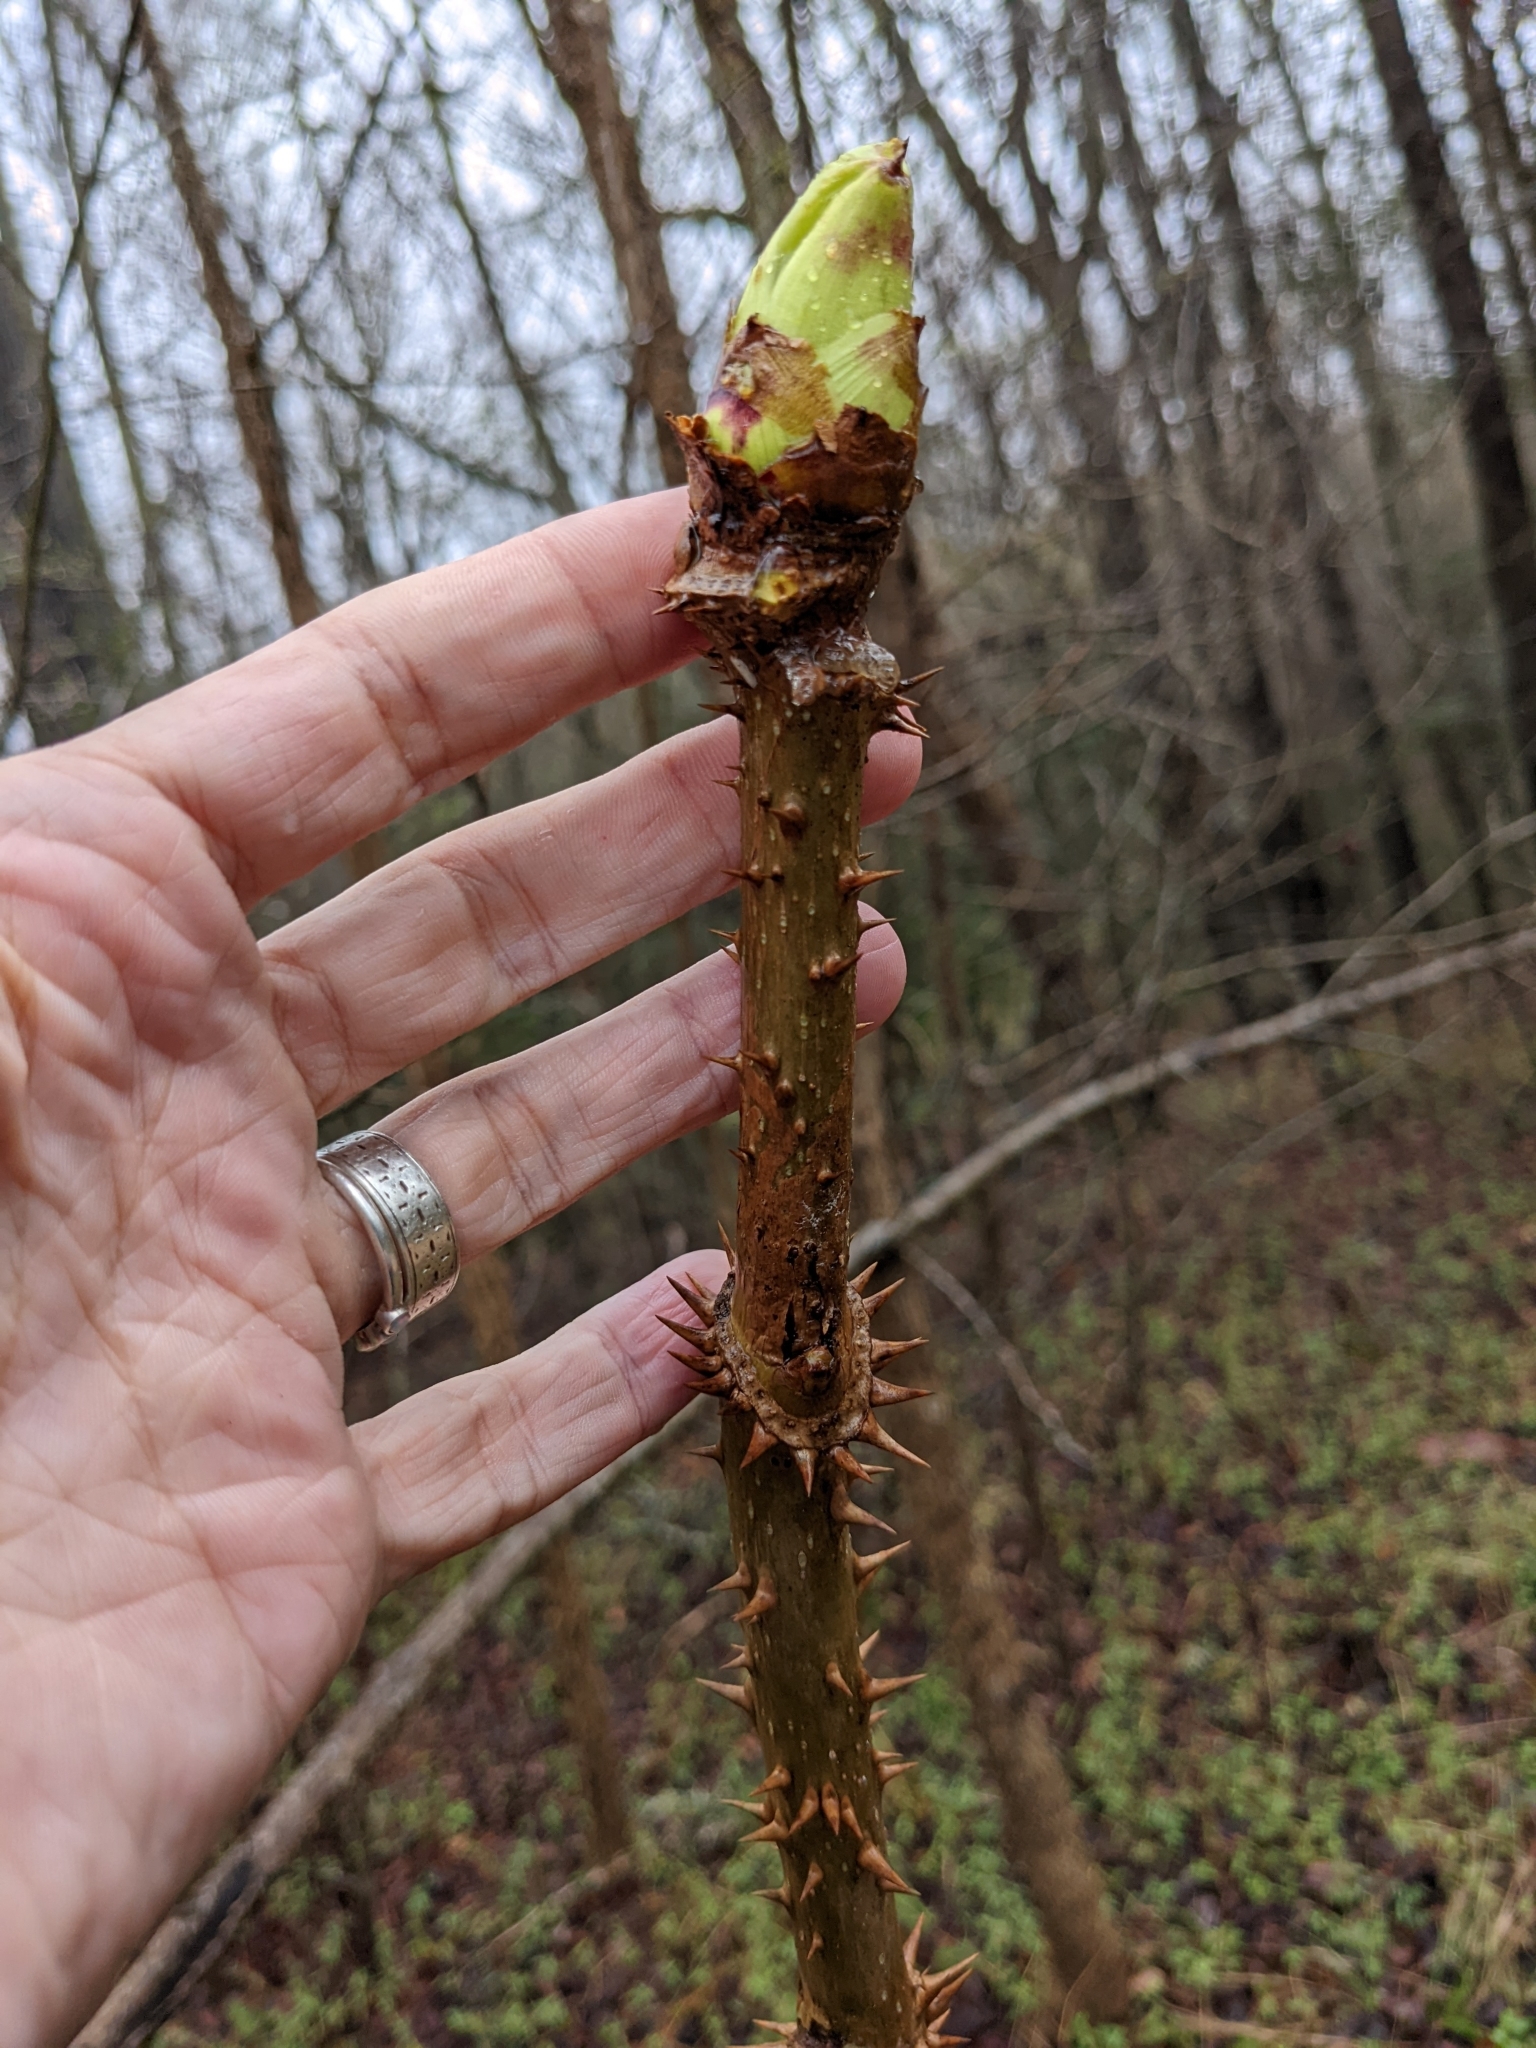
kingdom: Plantae
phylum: Tracheophyta
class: Magnoliopsida
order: Apiales
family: Araliaceae
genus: Aralia
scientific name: Aralia spinosa
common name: Hercules'-club
